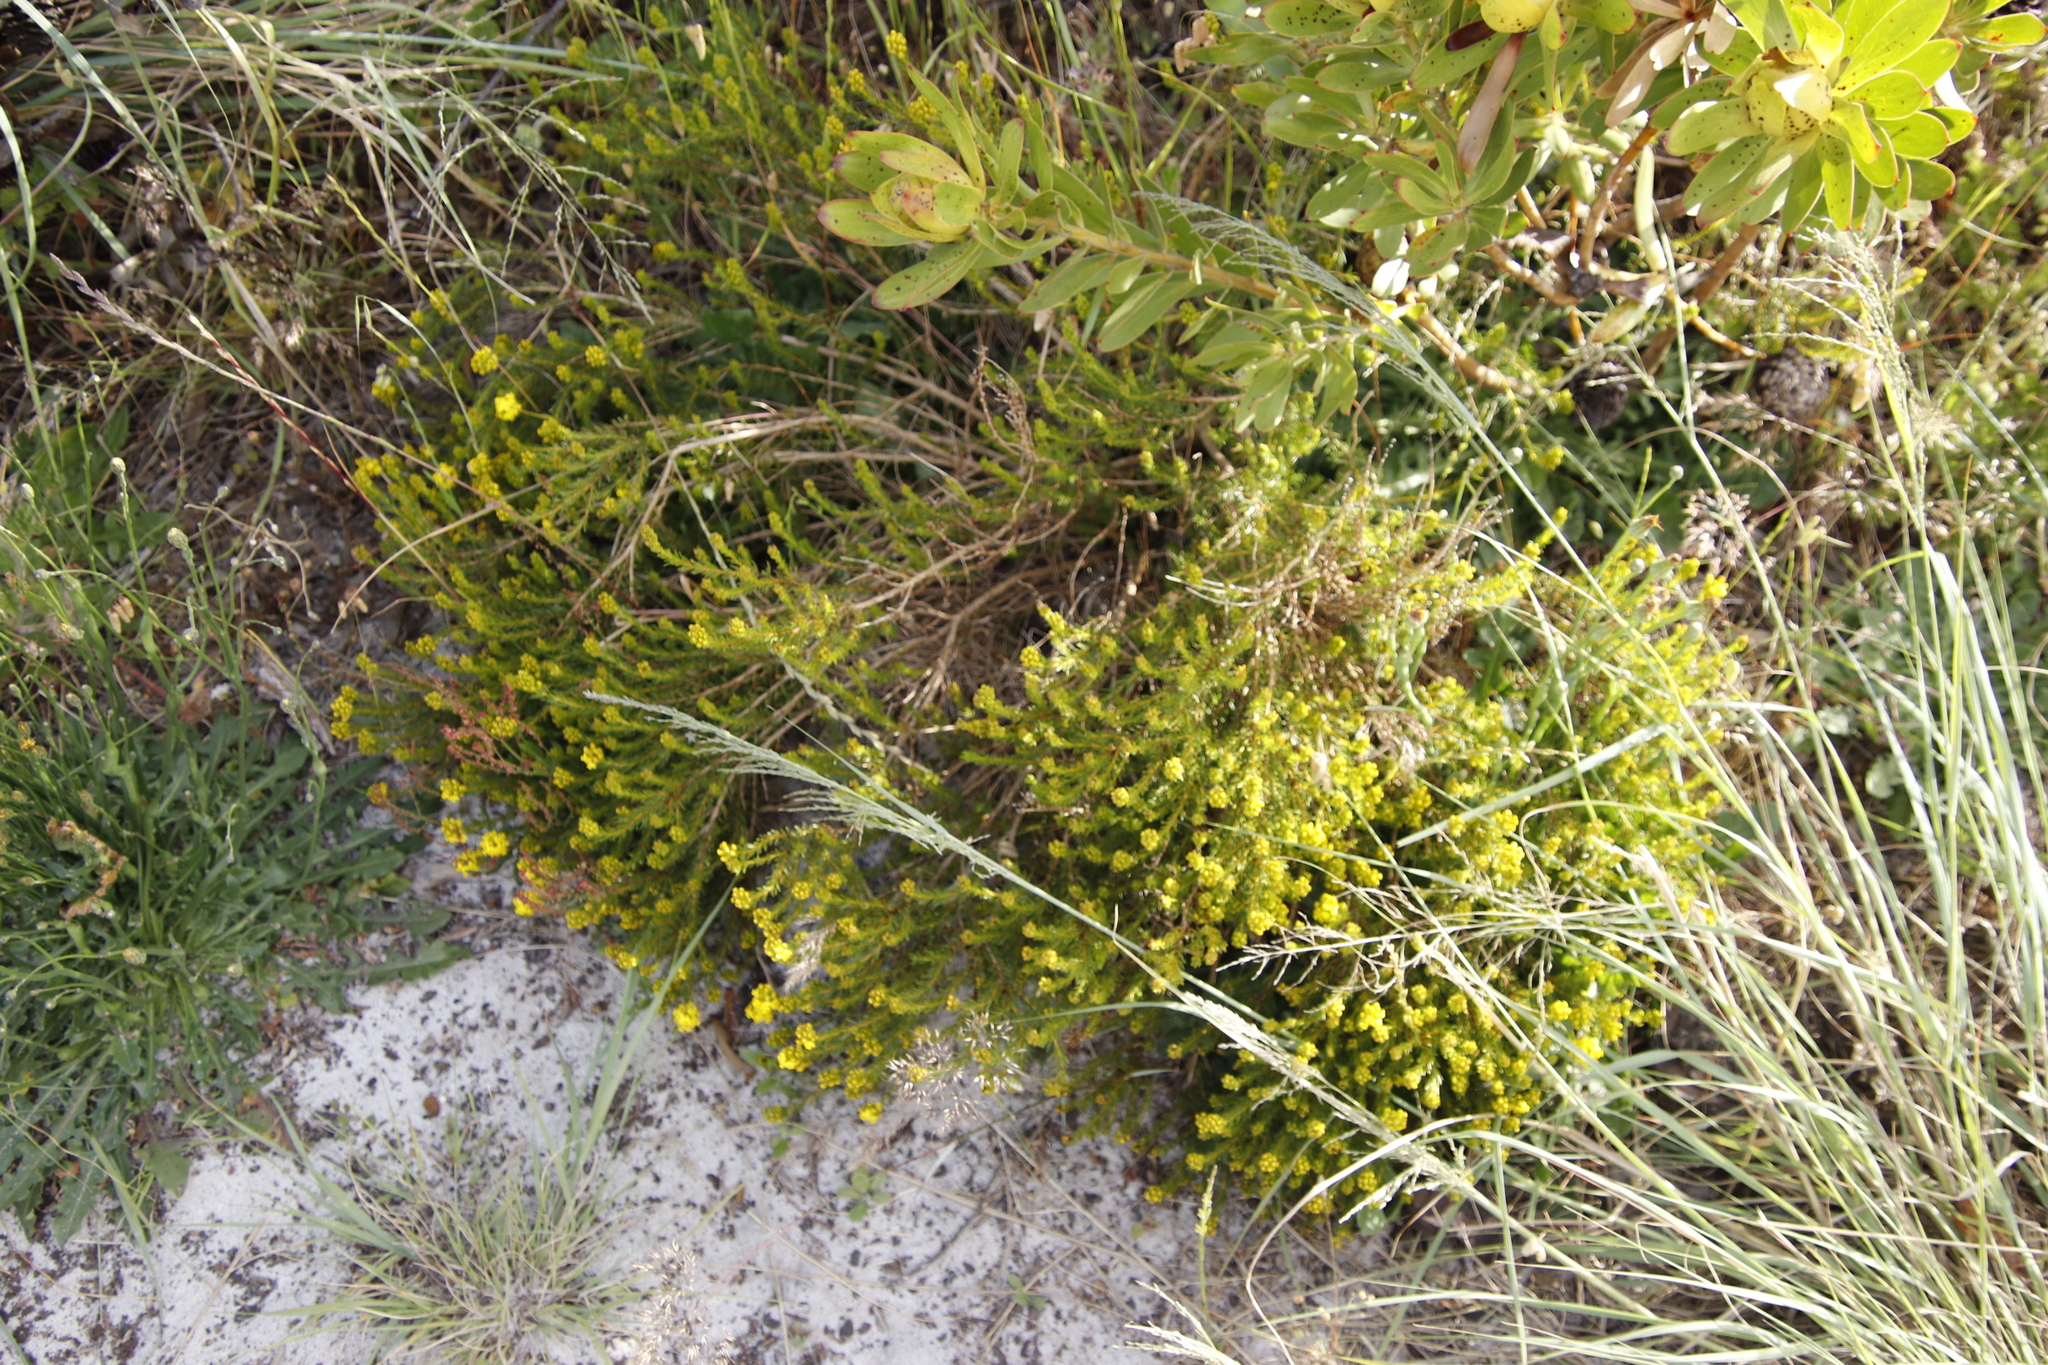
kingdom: Plantae
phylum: Tracheophyta
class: Magnoliopsida
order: Fabales
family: Fabaceae
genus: Aspalathus
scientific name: Aspalathus callosa
